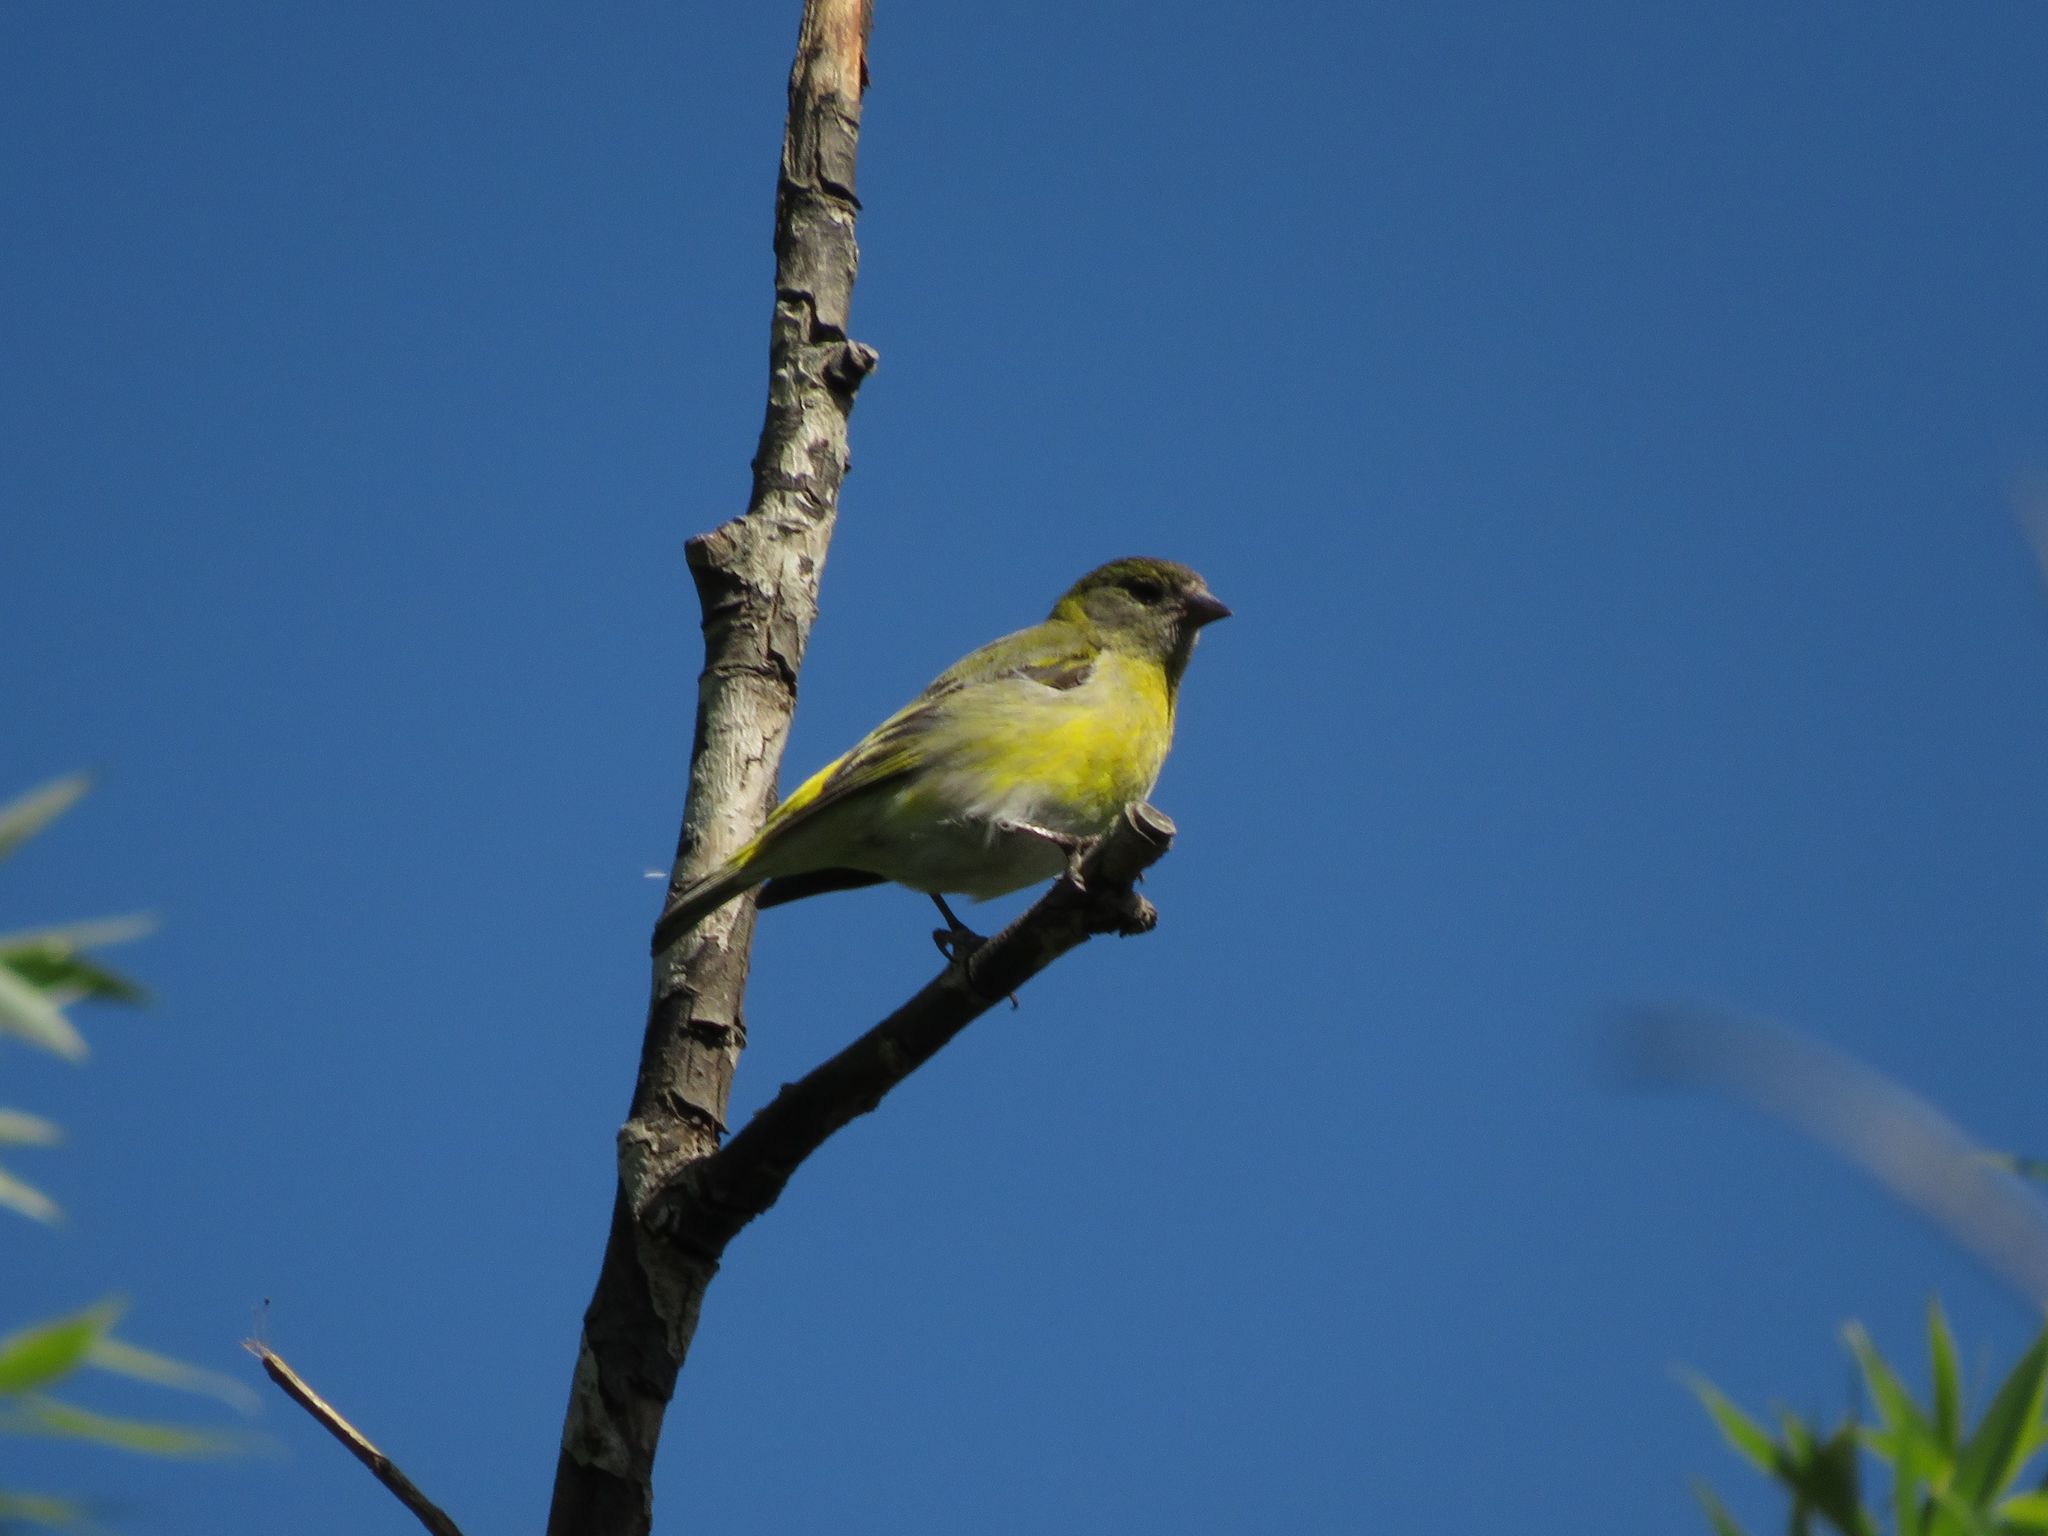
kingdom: Animalia
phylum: Chordata
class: Aves
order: Passeriformes
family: Fringillidae
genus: Spinus
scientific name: Spinus magellanicus
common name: Hooded siskin
